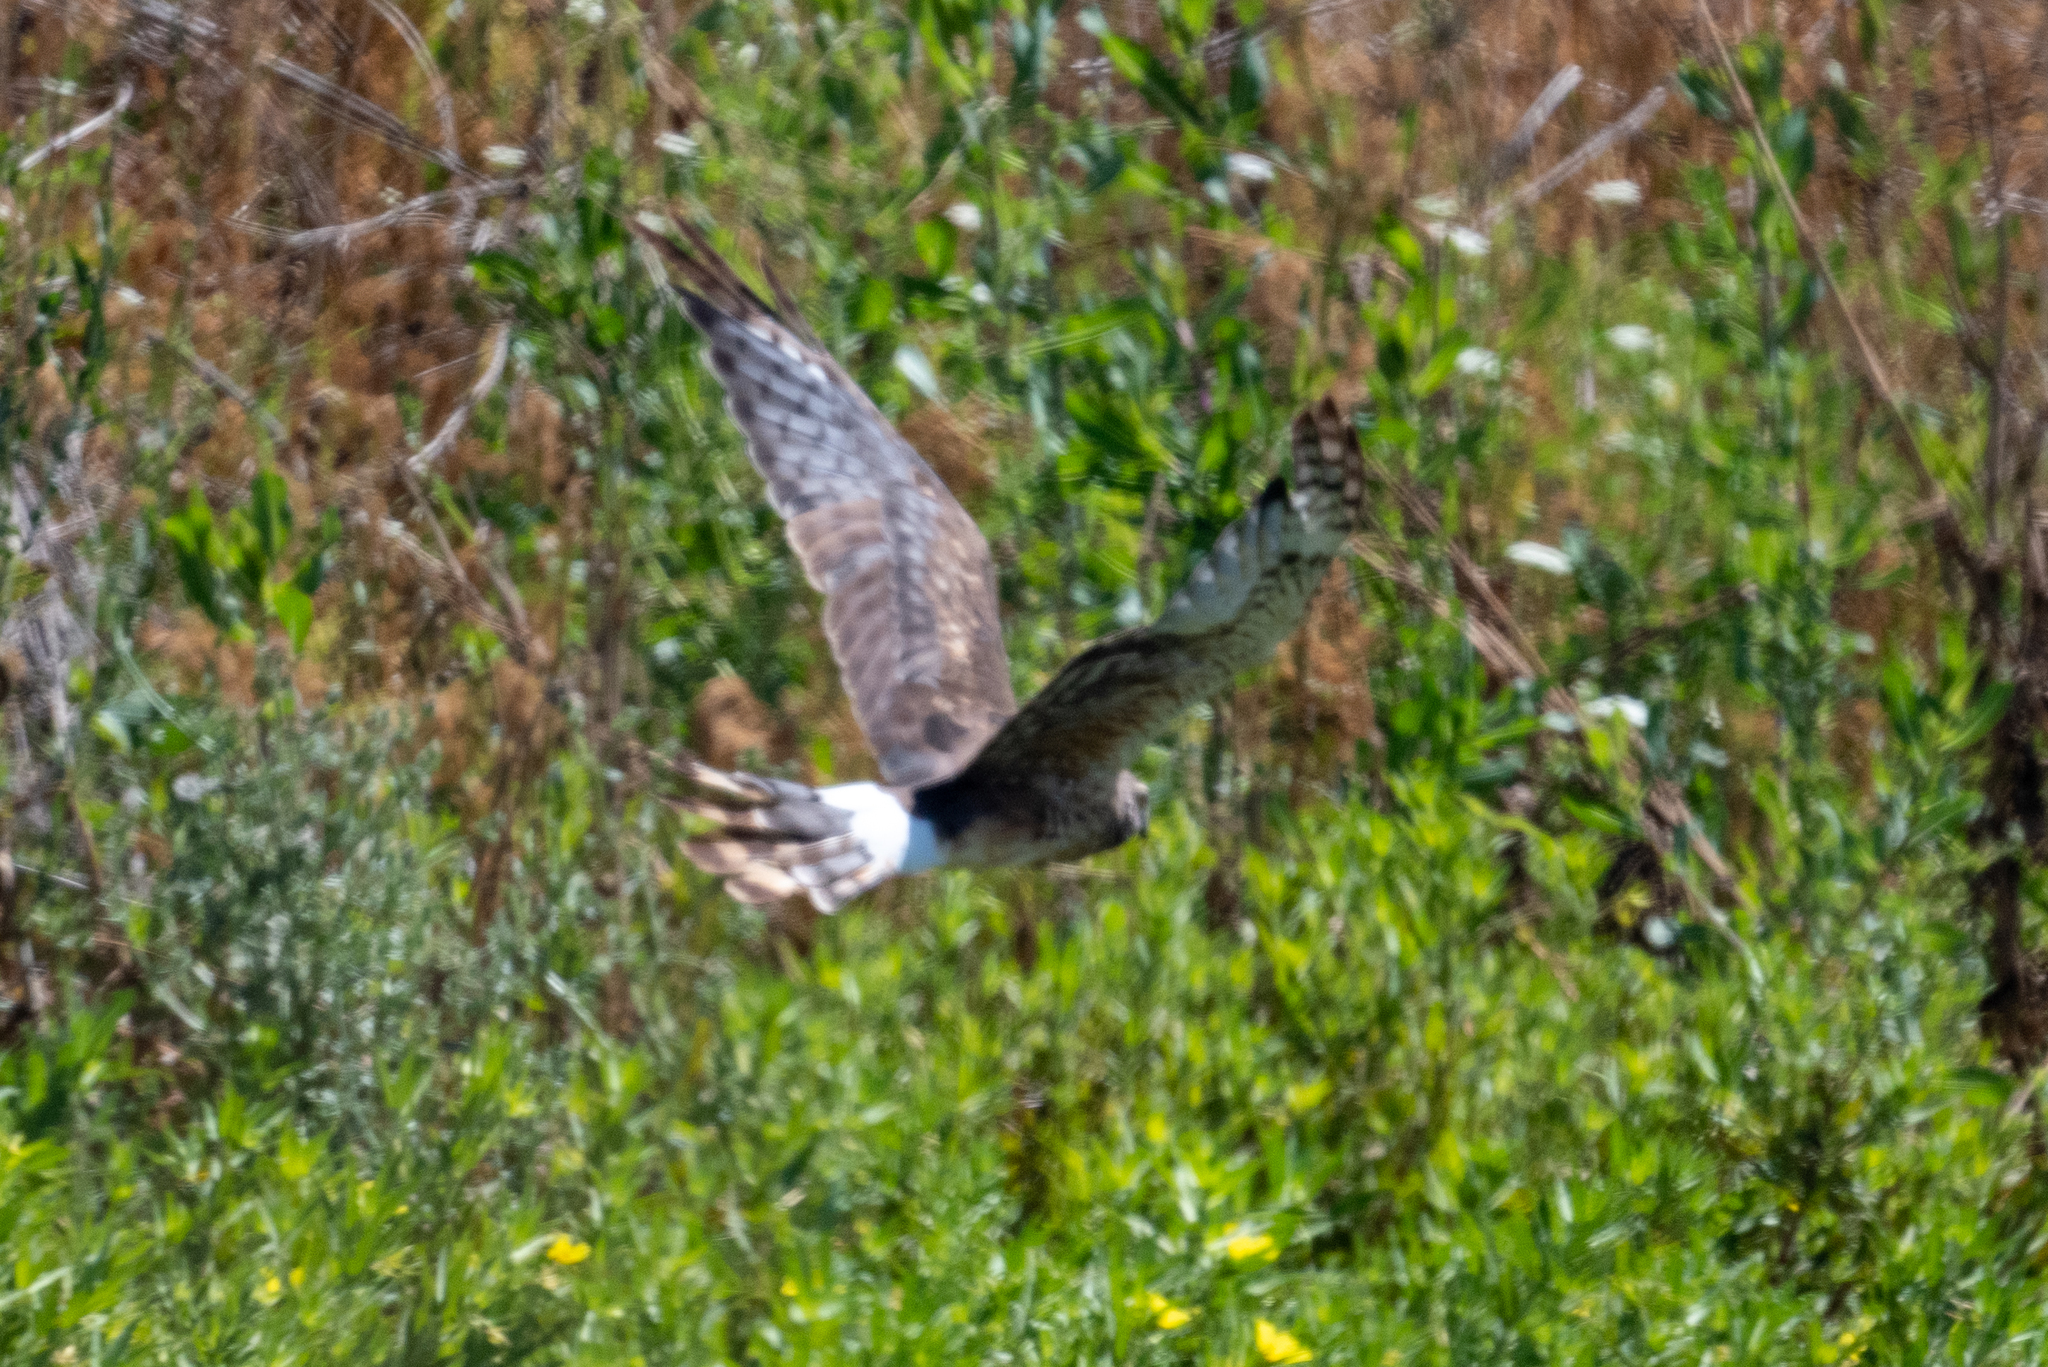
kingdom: Animalia
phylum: Chordata
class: Aves
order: Accipitriformes
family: Accipitridae
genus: Circus
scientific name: Circus cyaneus
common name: Hen harrier
